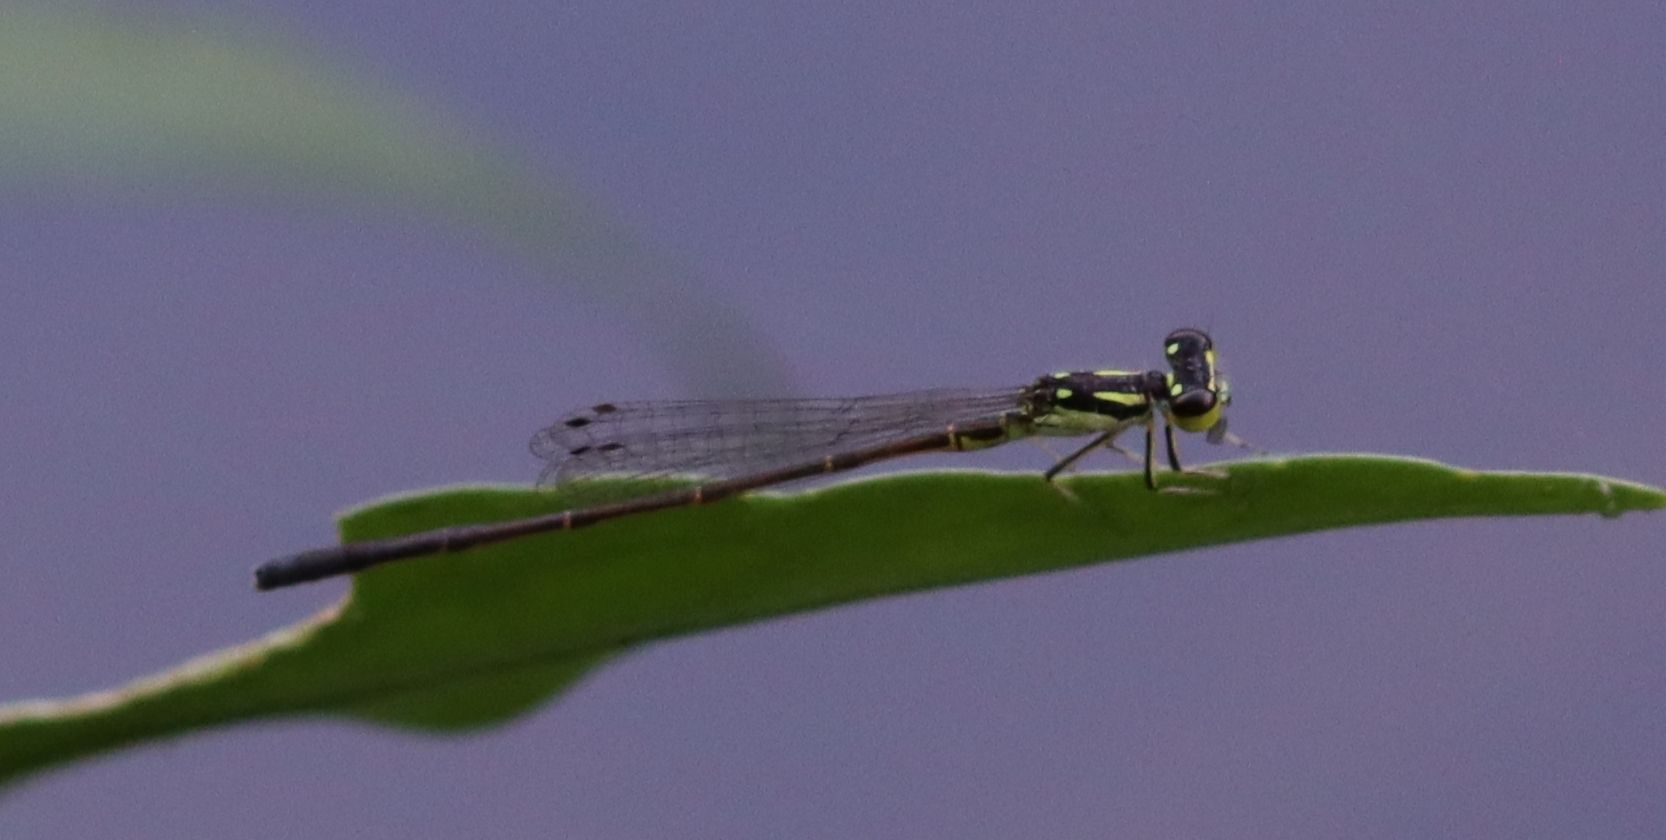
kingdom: Animalia
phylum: Arthropoda
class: Insecta
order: Odonata
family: Coenagrionidae
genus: Ischnura
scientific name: Ischnura posita
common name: Fragile forktail
